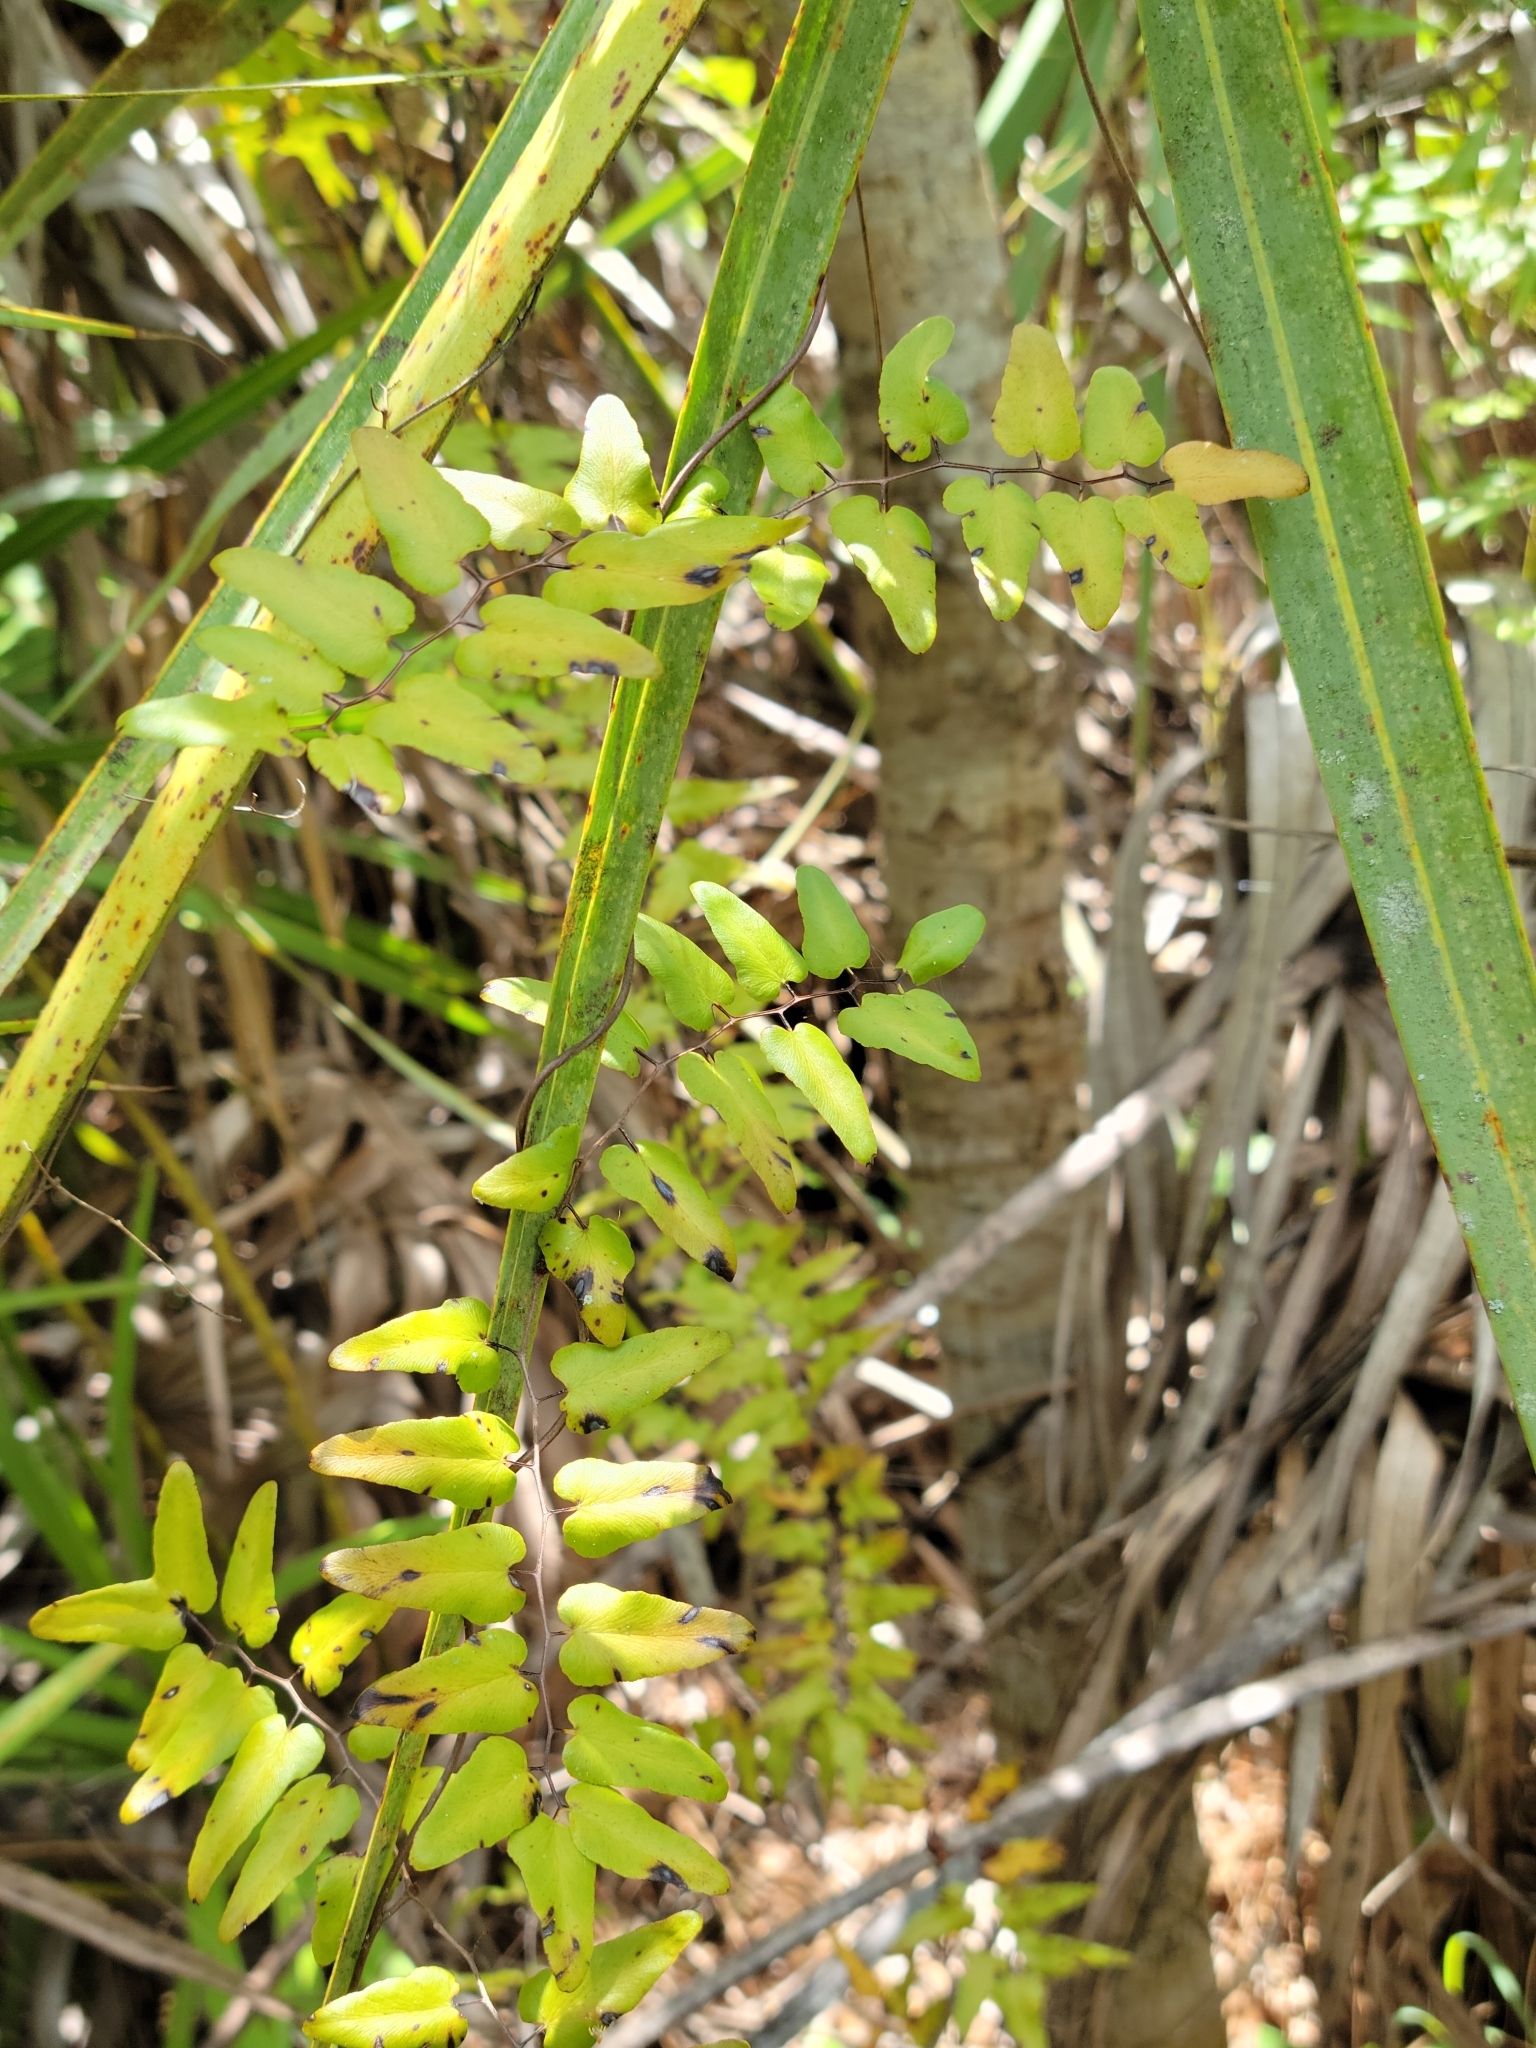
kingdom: Plantae
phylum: Tracheophyta
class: Polypodiopsida
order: Schizaeales
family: Lygodiaceae
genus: Lygodium
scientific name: Lygodium microphyllum
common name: Small-leaf climbing fern
